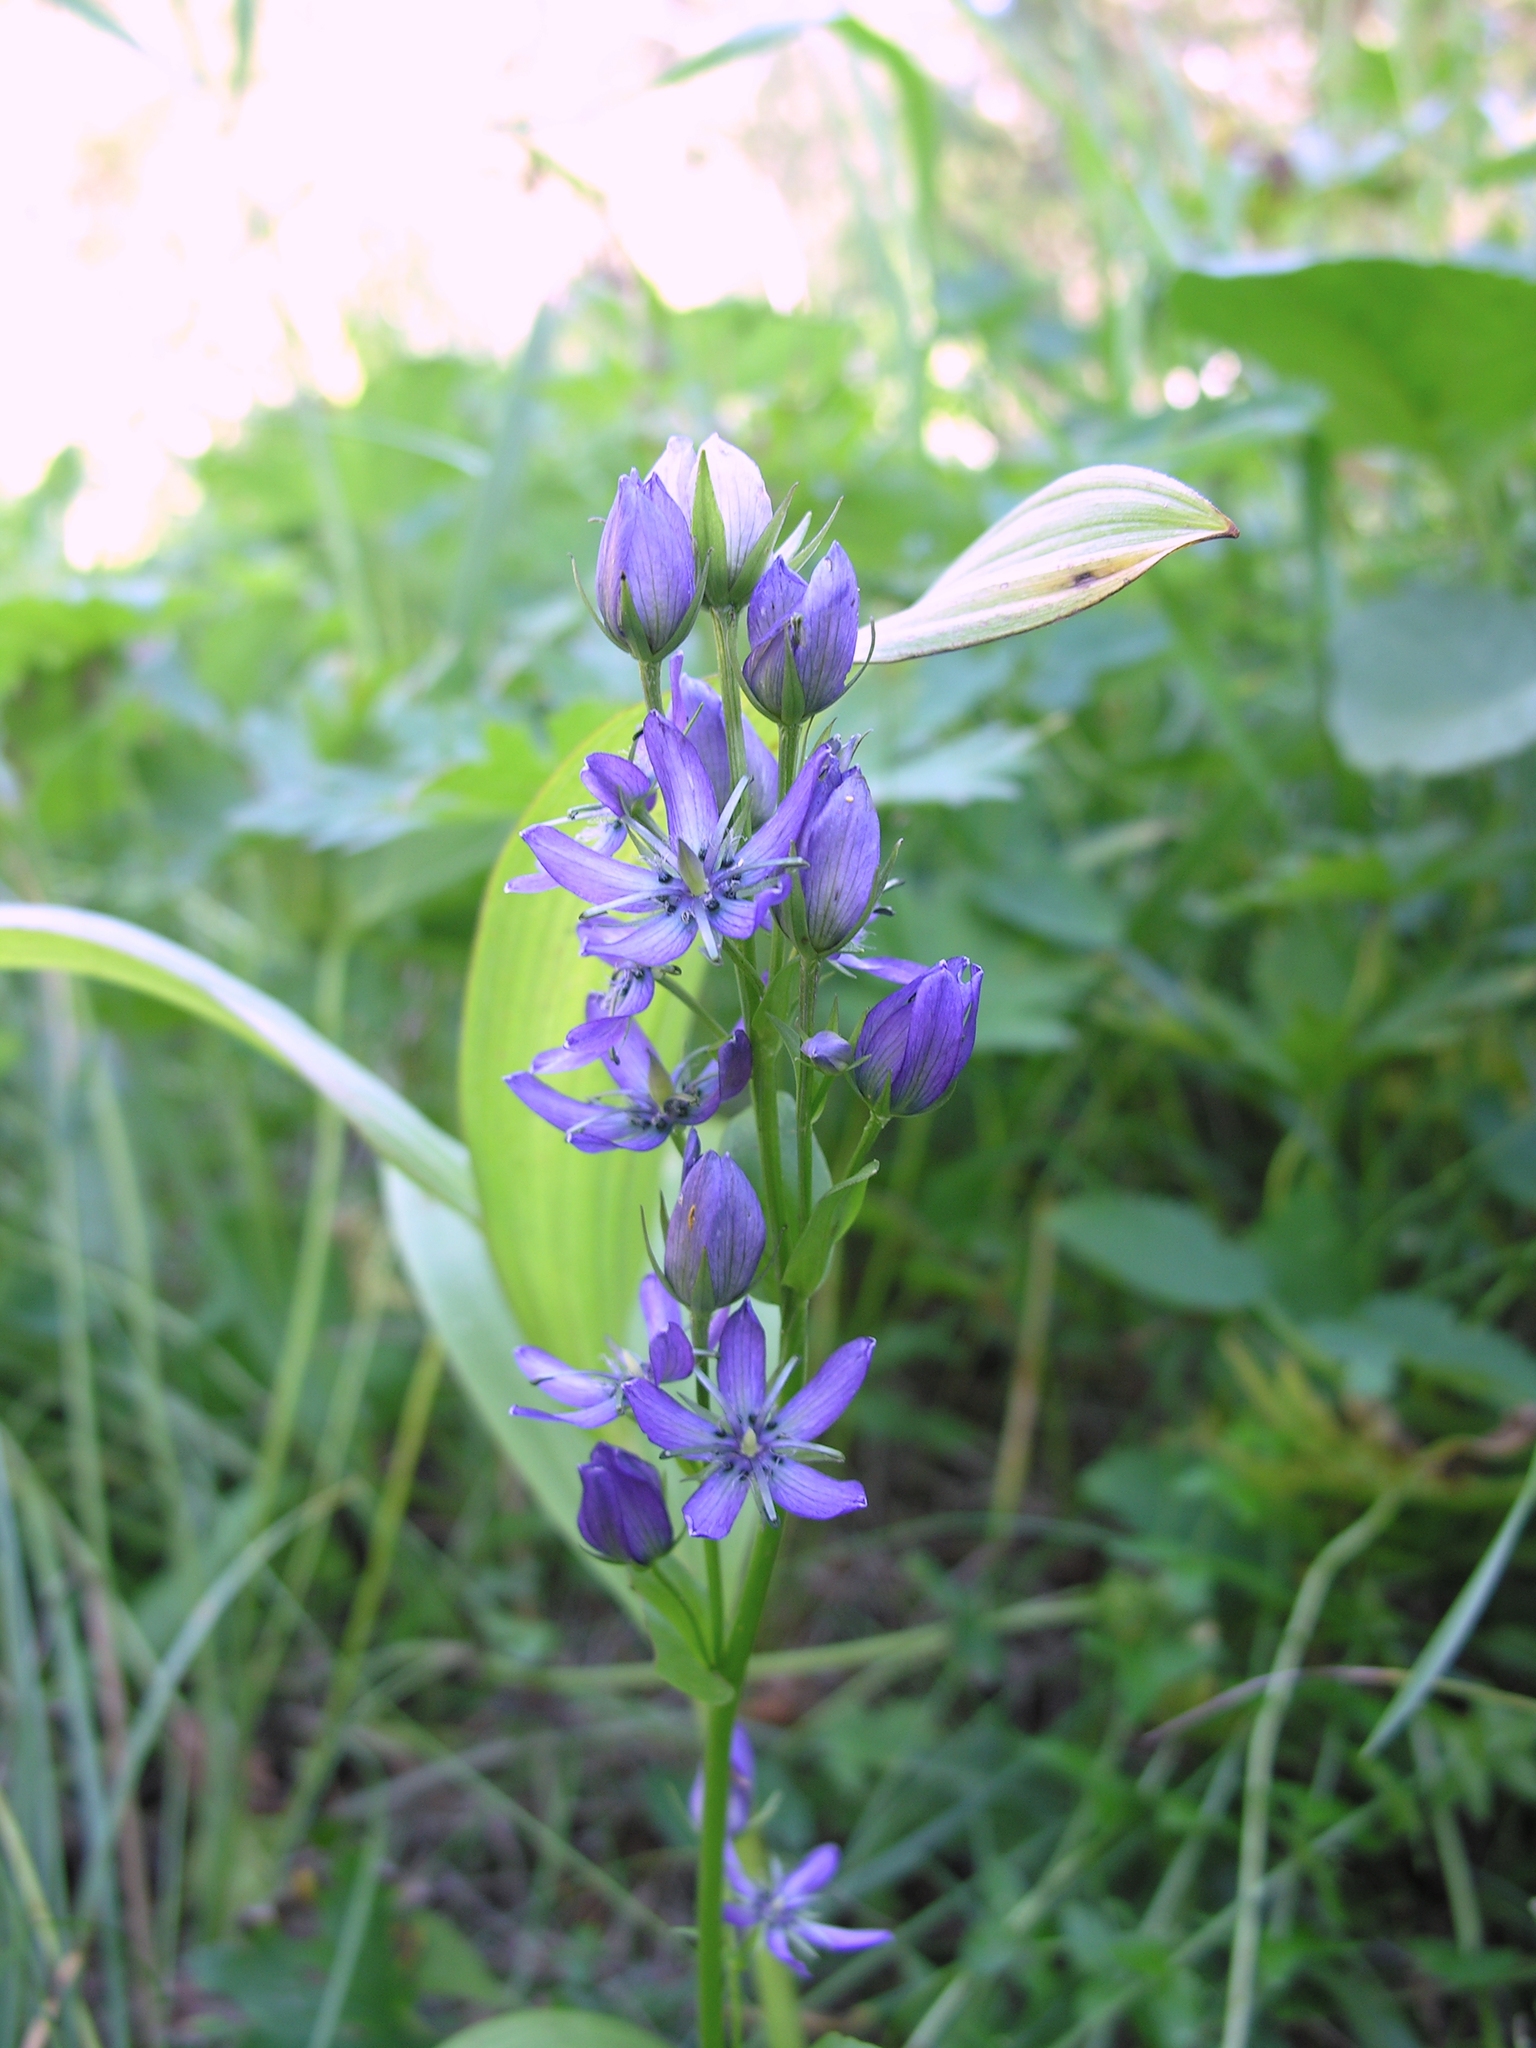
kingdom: Plantae
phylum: Tracheophyta
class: Magnoliopsida
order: Gentianales
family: Gentianaceae
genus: Swertia
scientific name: Swertia obtusa
